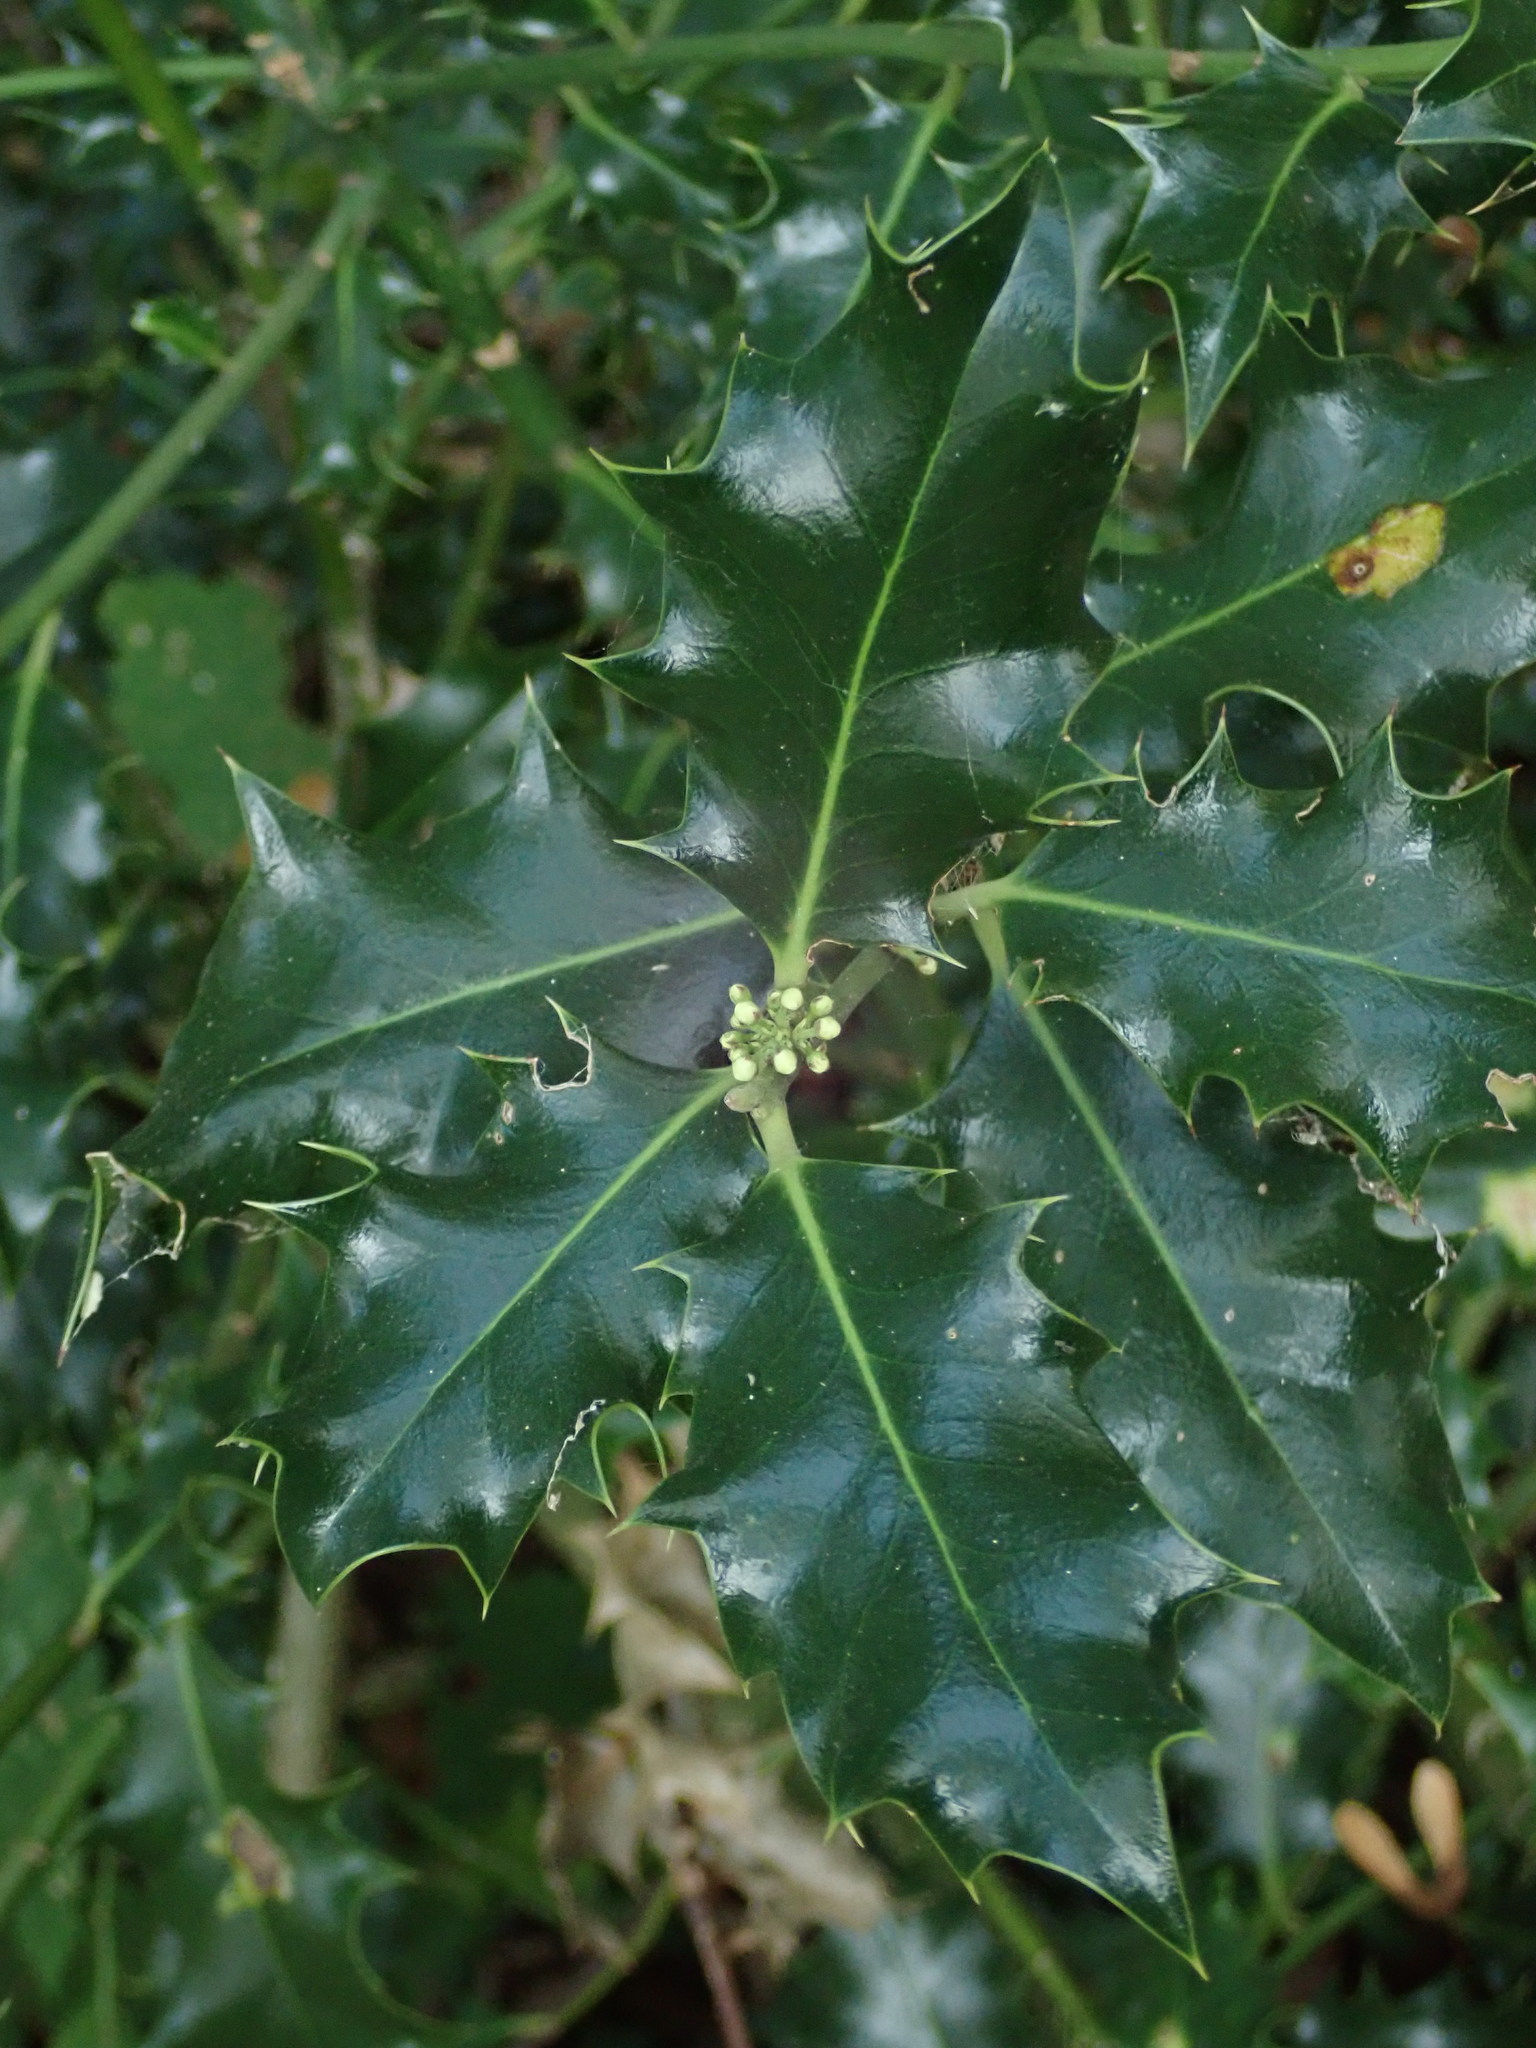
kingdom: Plantae
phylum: Tracheophyta
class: Magnoliopsida
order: Aquifoliales
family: Aquifoliaceae
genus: Ilex
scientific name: Ilex aquifolium
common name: English holly
